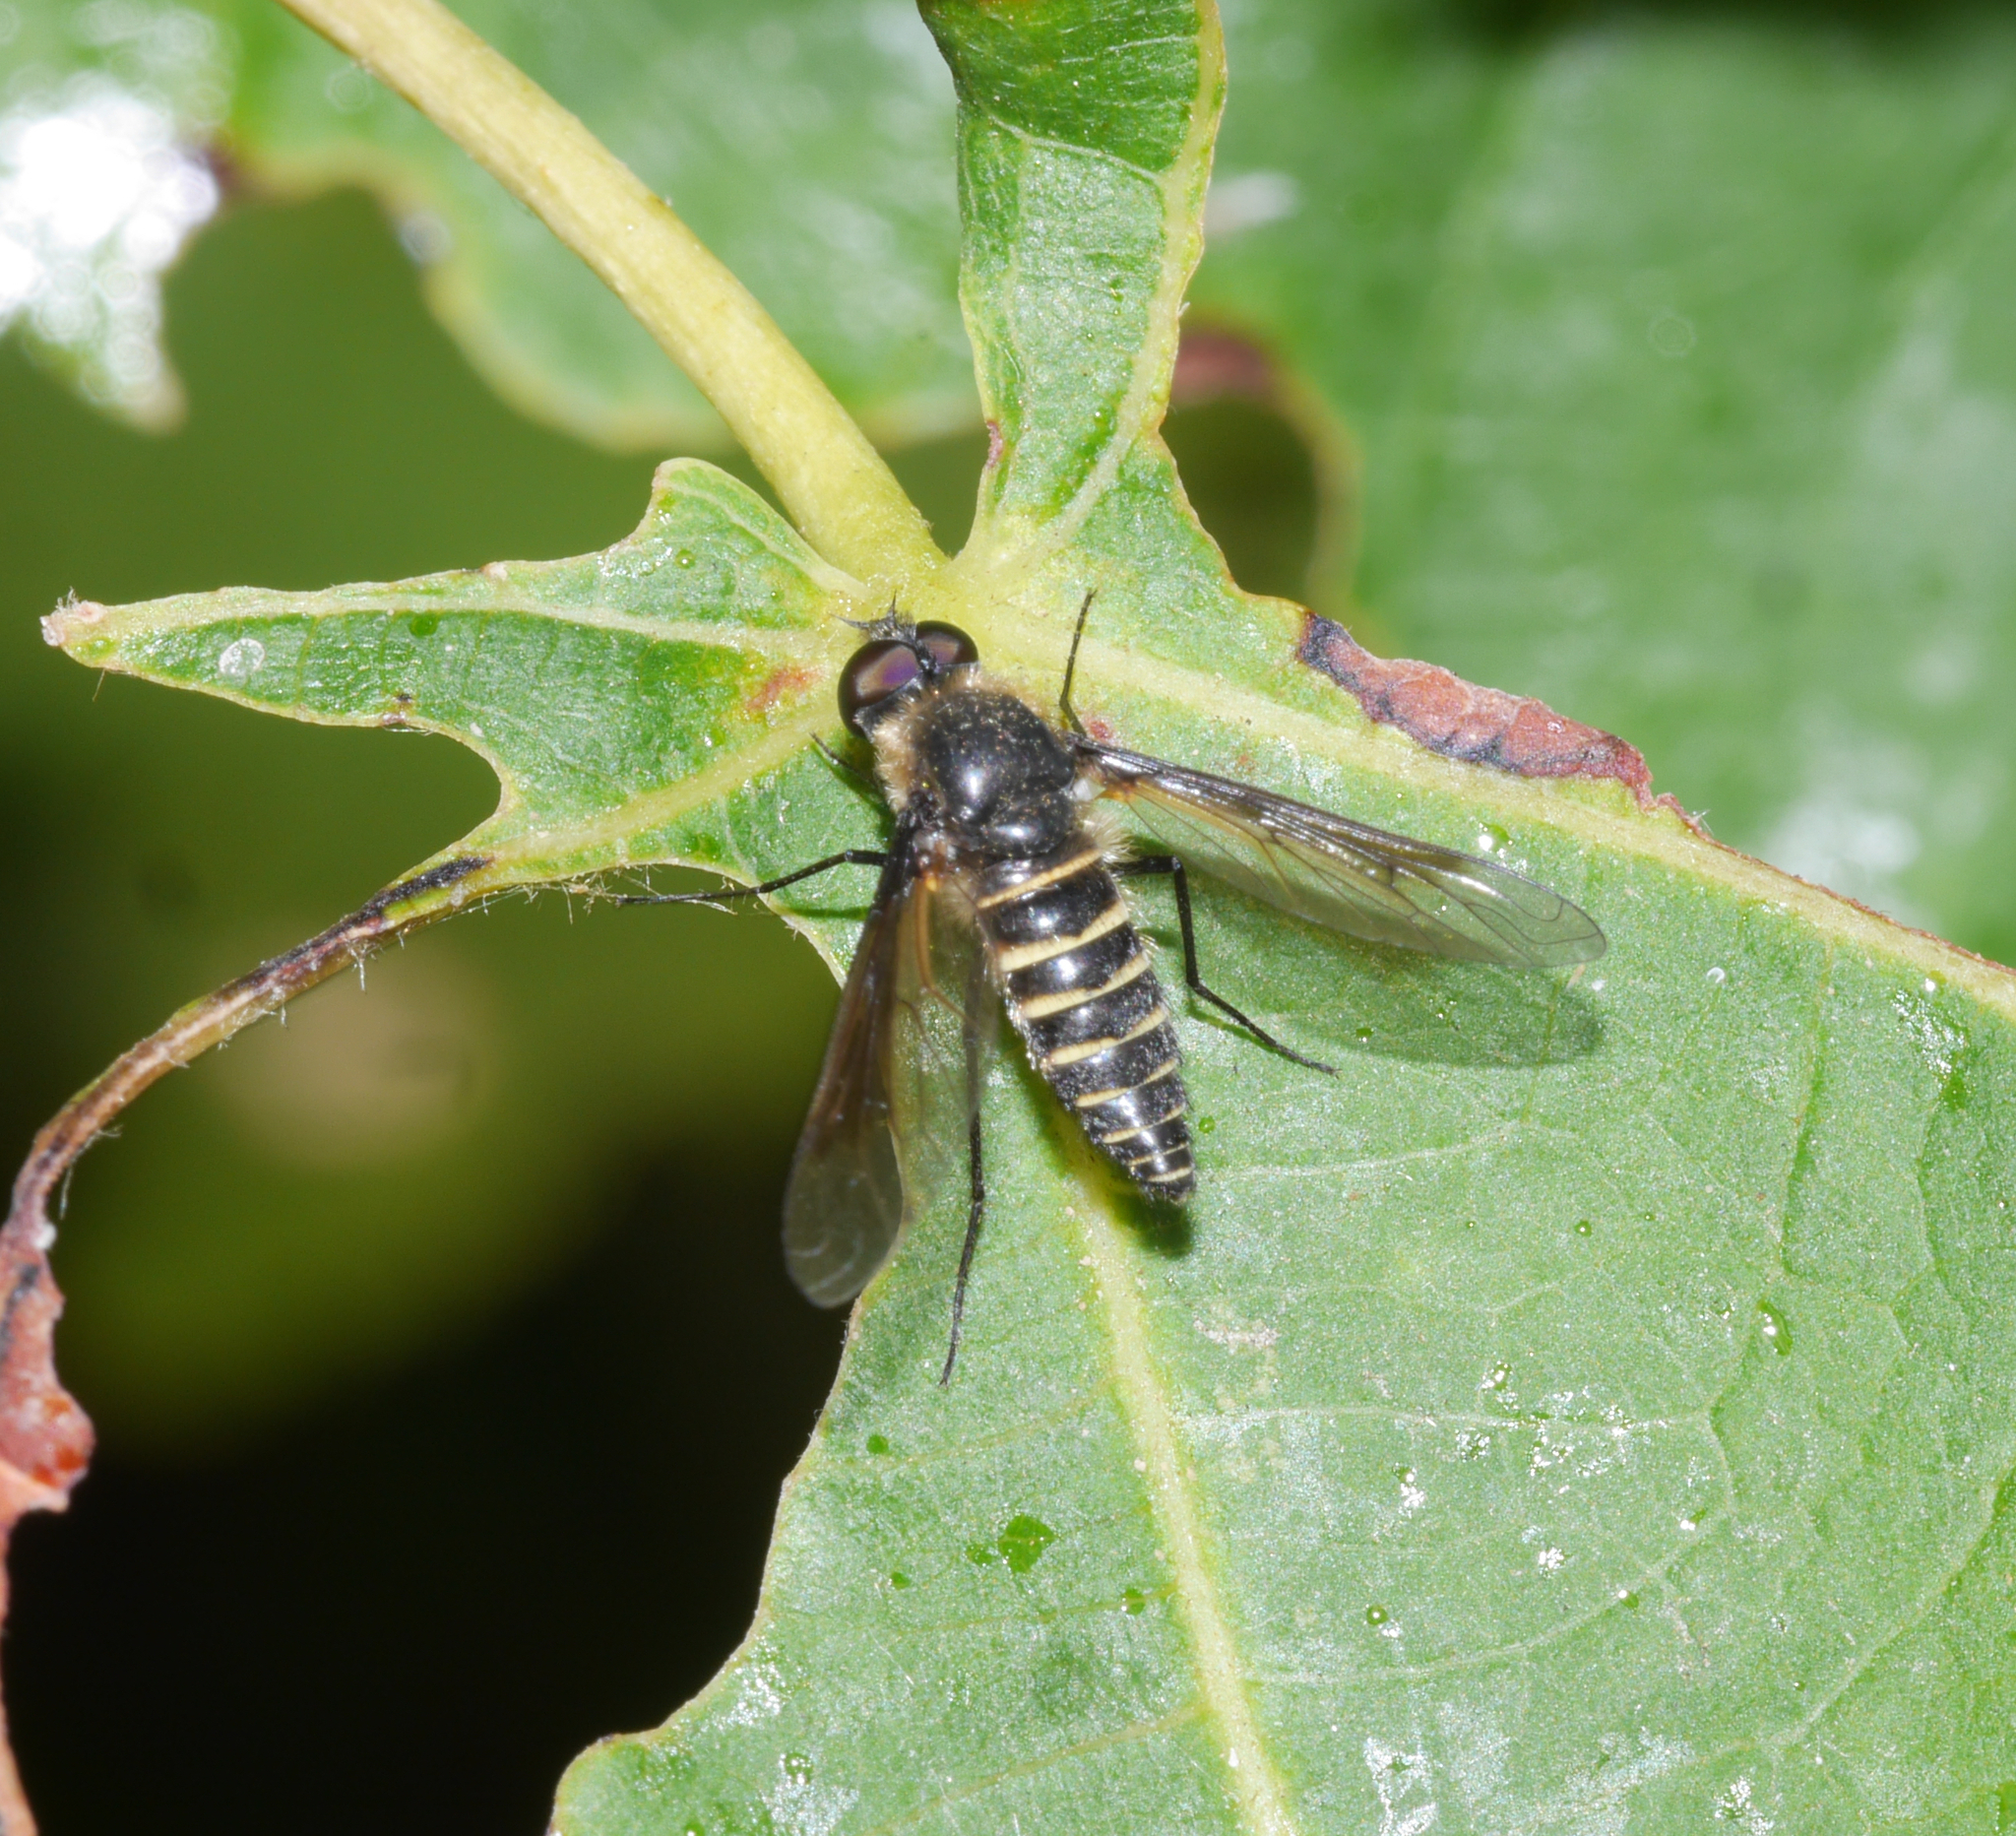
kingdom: Animalia
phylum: Arthropoda
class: Insecta
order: Diptera
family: Bombyliidae
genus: Lomatia
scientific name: Lomatia lateralis
